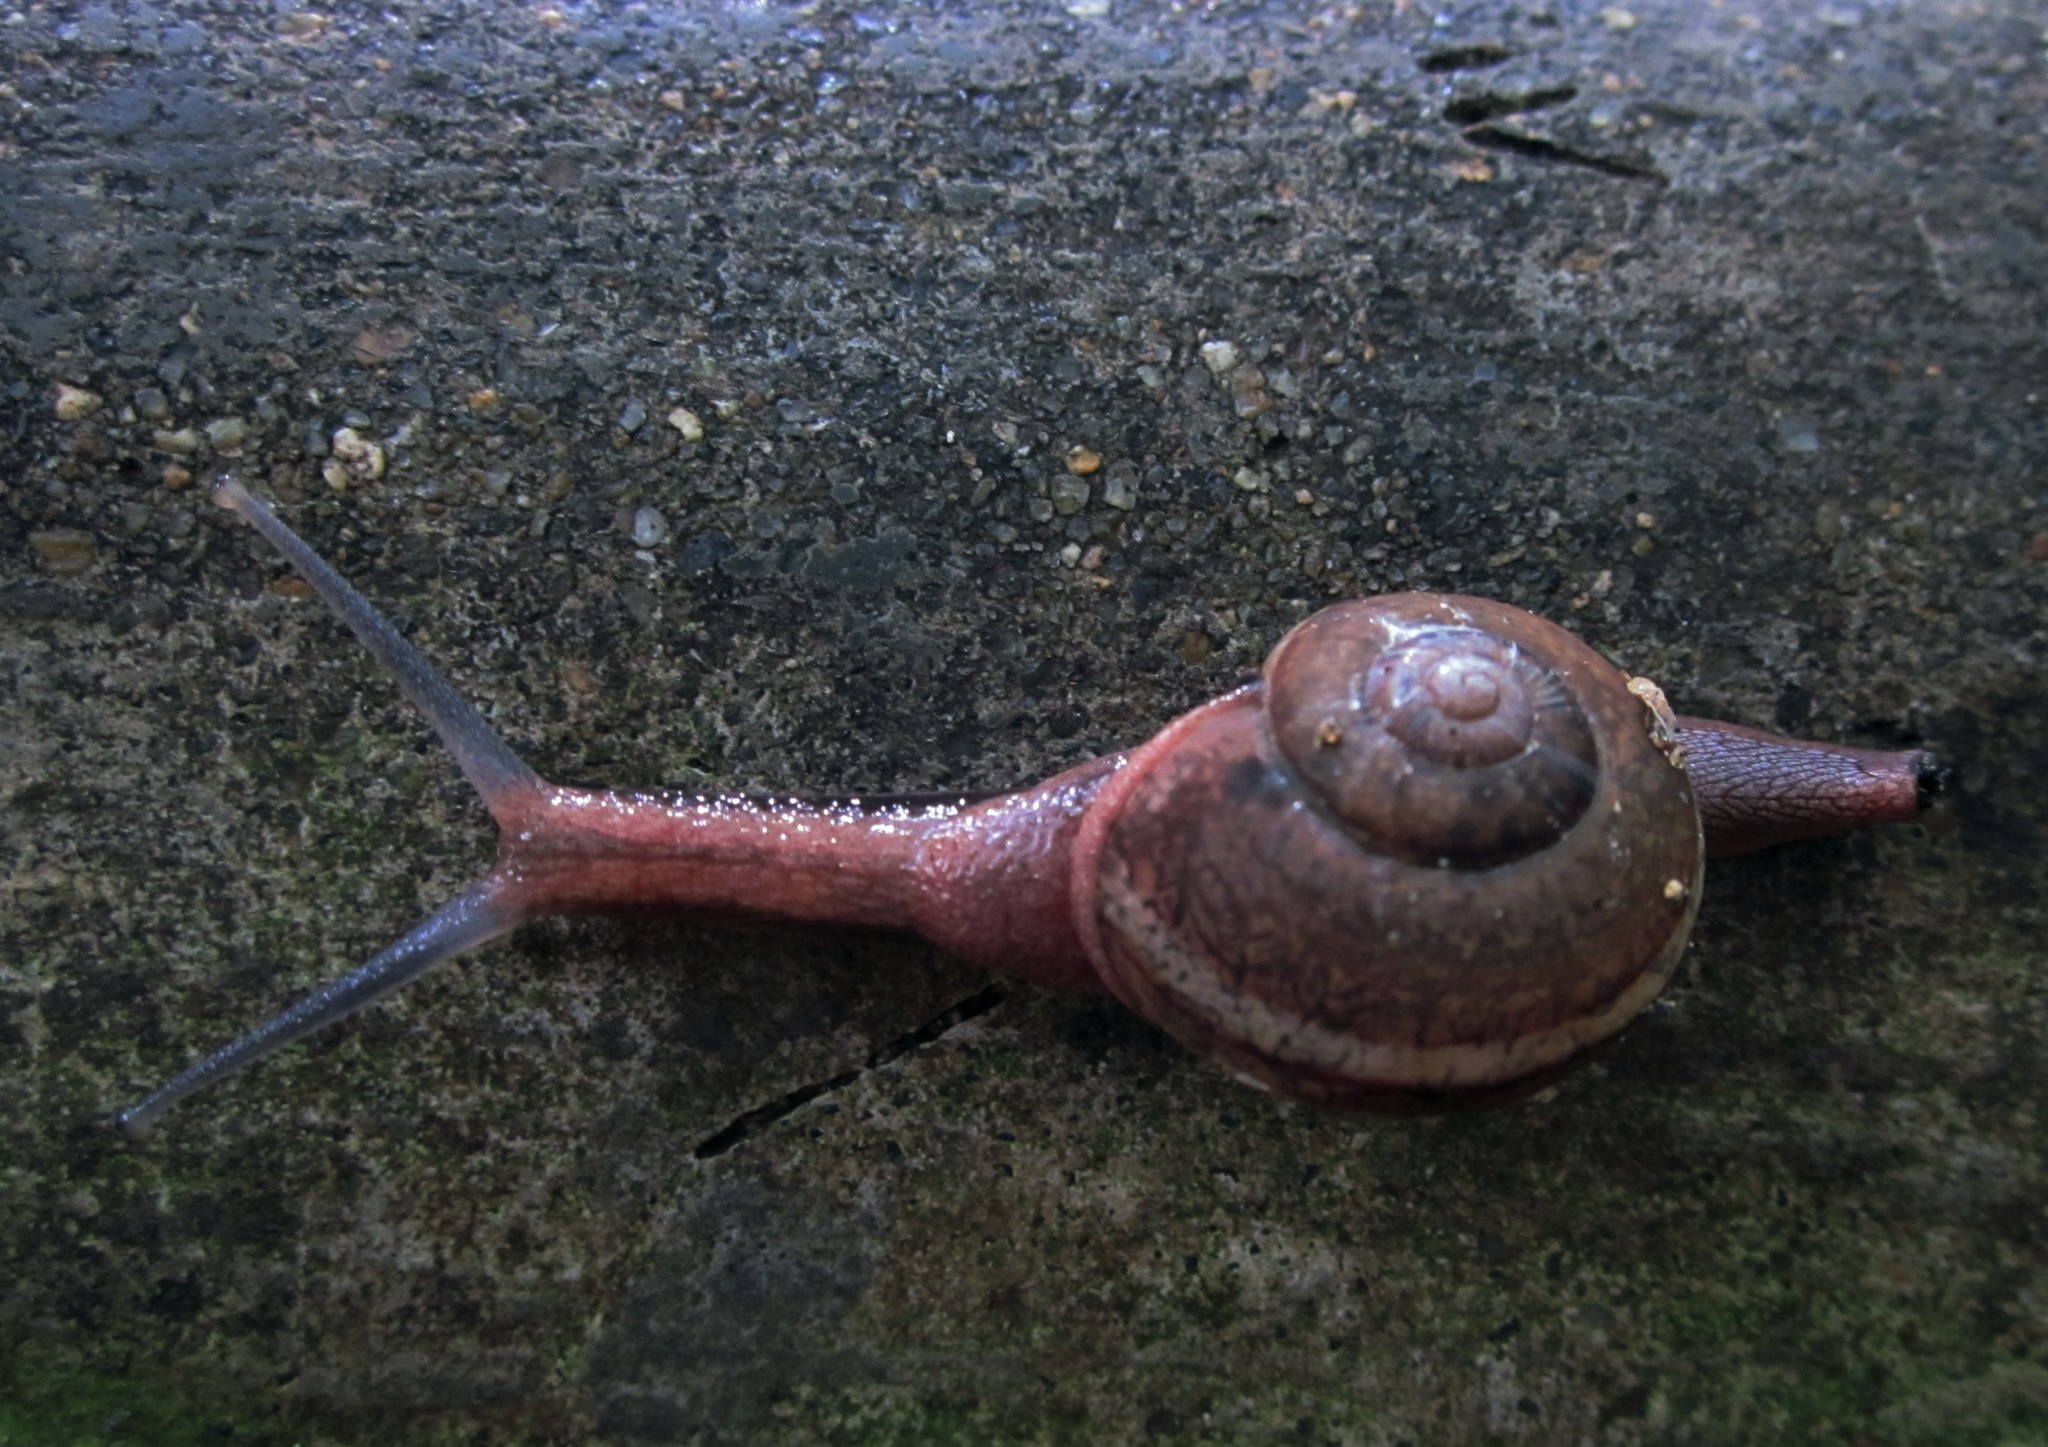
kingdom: Animalia
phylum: Mollusca
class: Gastropoda
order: Stylommatophora
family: Ariophantidae
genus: Ariophanta
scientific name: Ariophanta exilis
